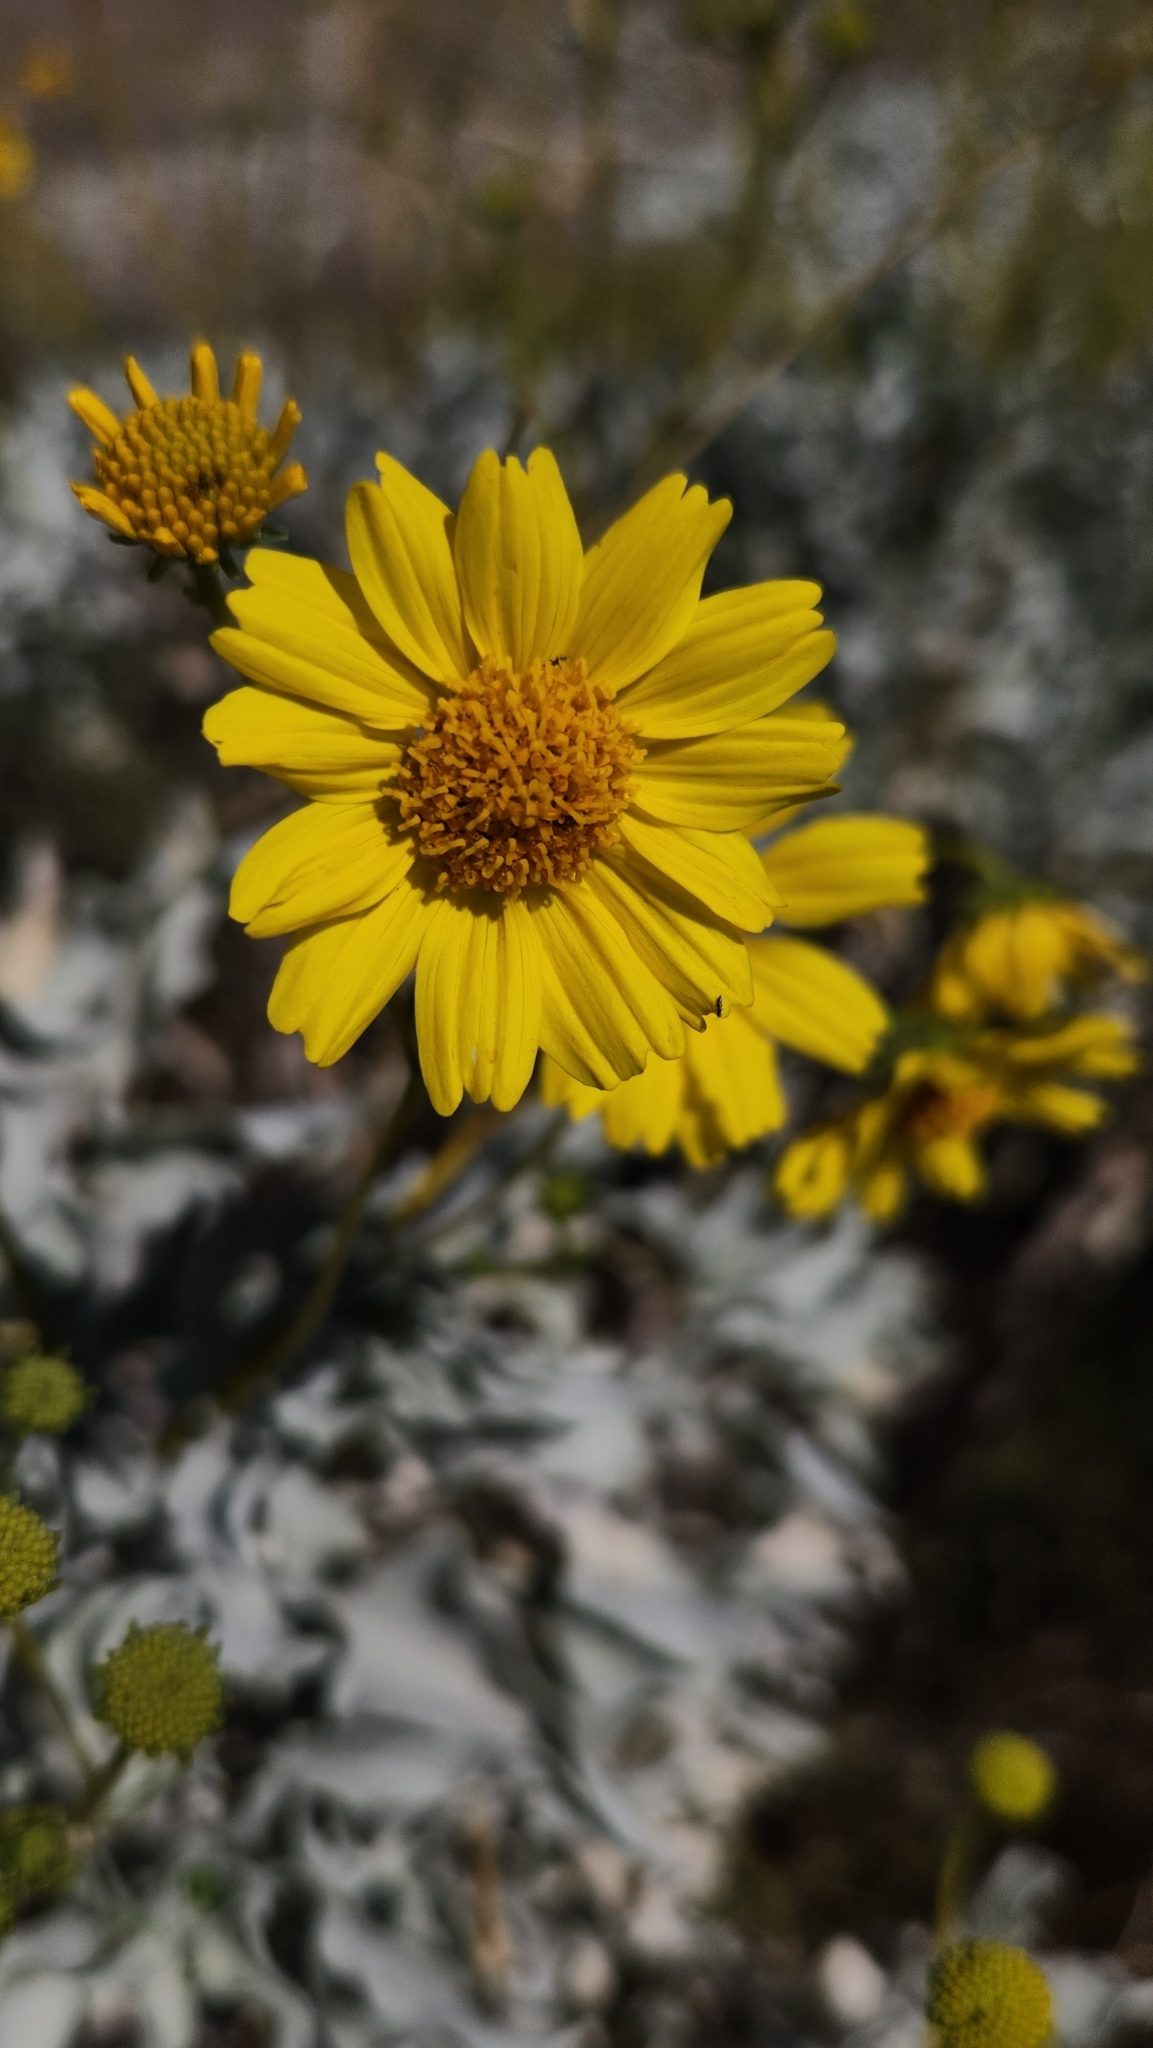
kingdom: Plantae
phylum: Tracheophyta
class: Magnoliopsida
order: Asterales
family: Asteraceae
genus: Encelia
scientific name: Encelia farinosa
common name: Brittlebush
